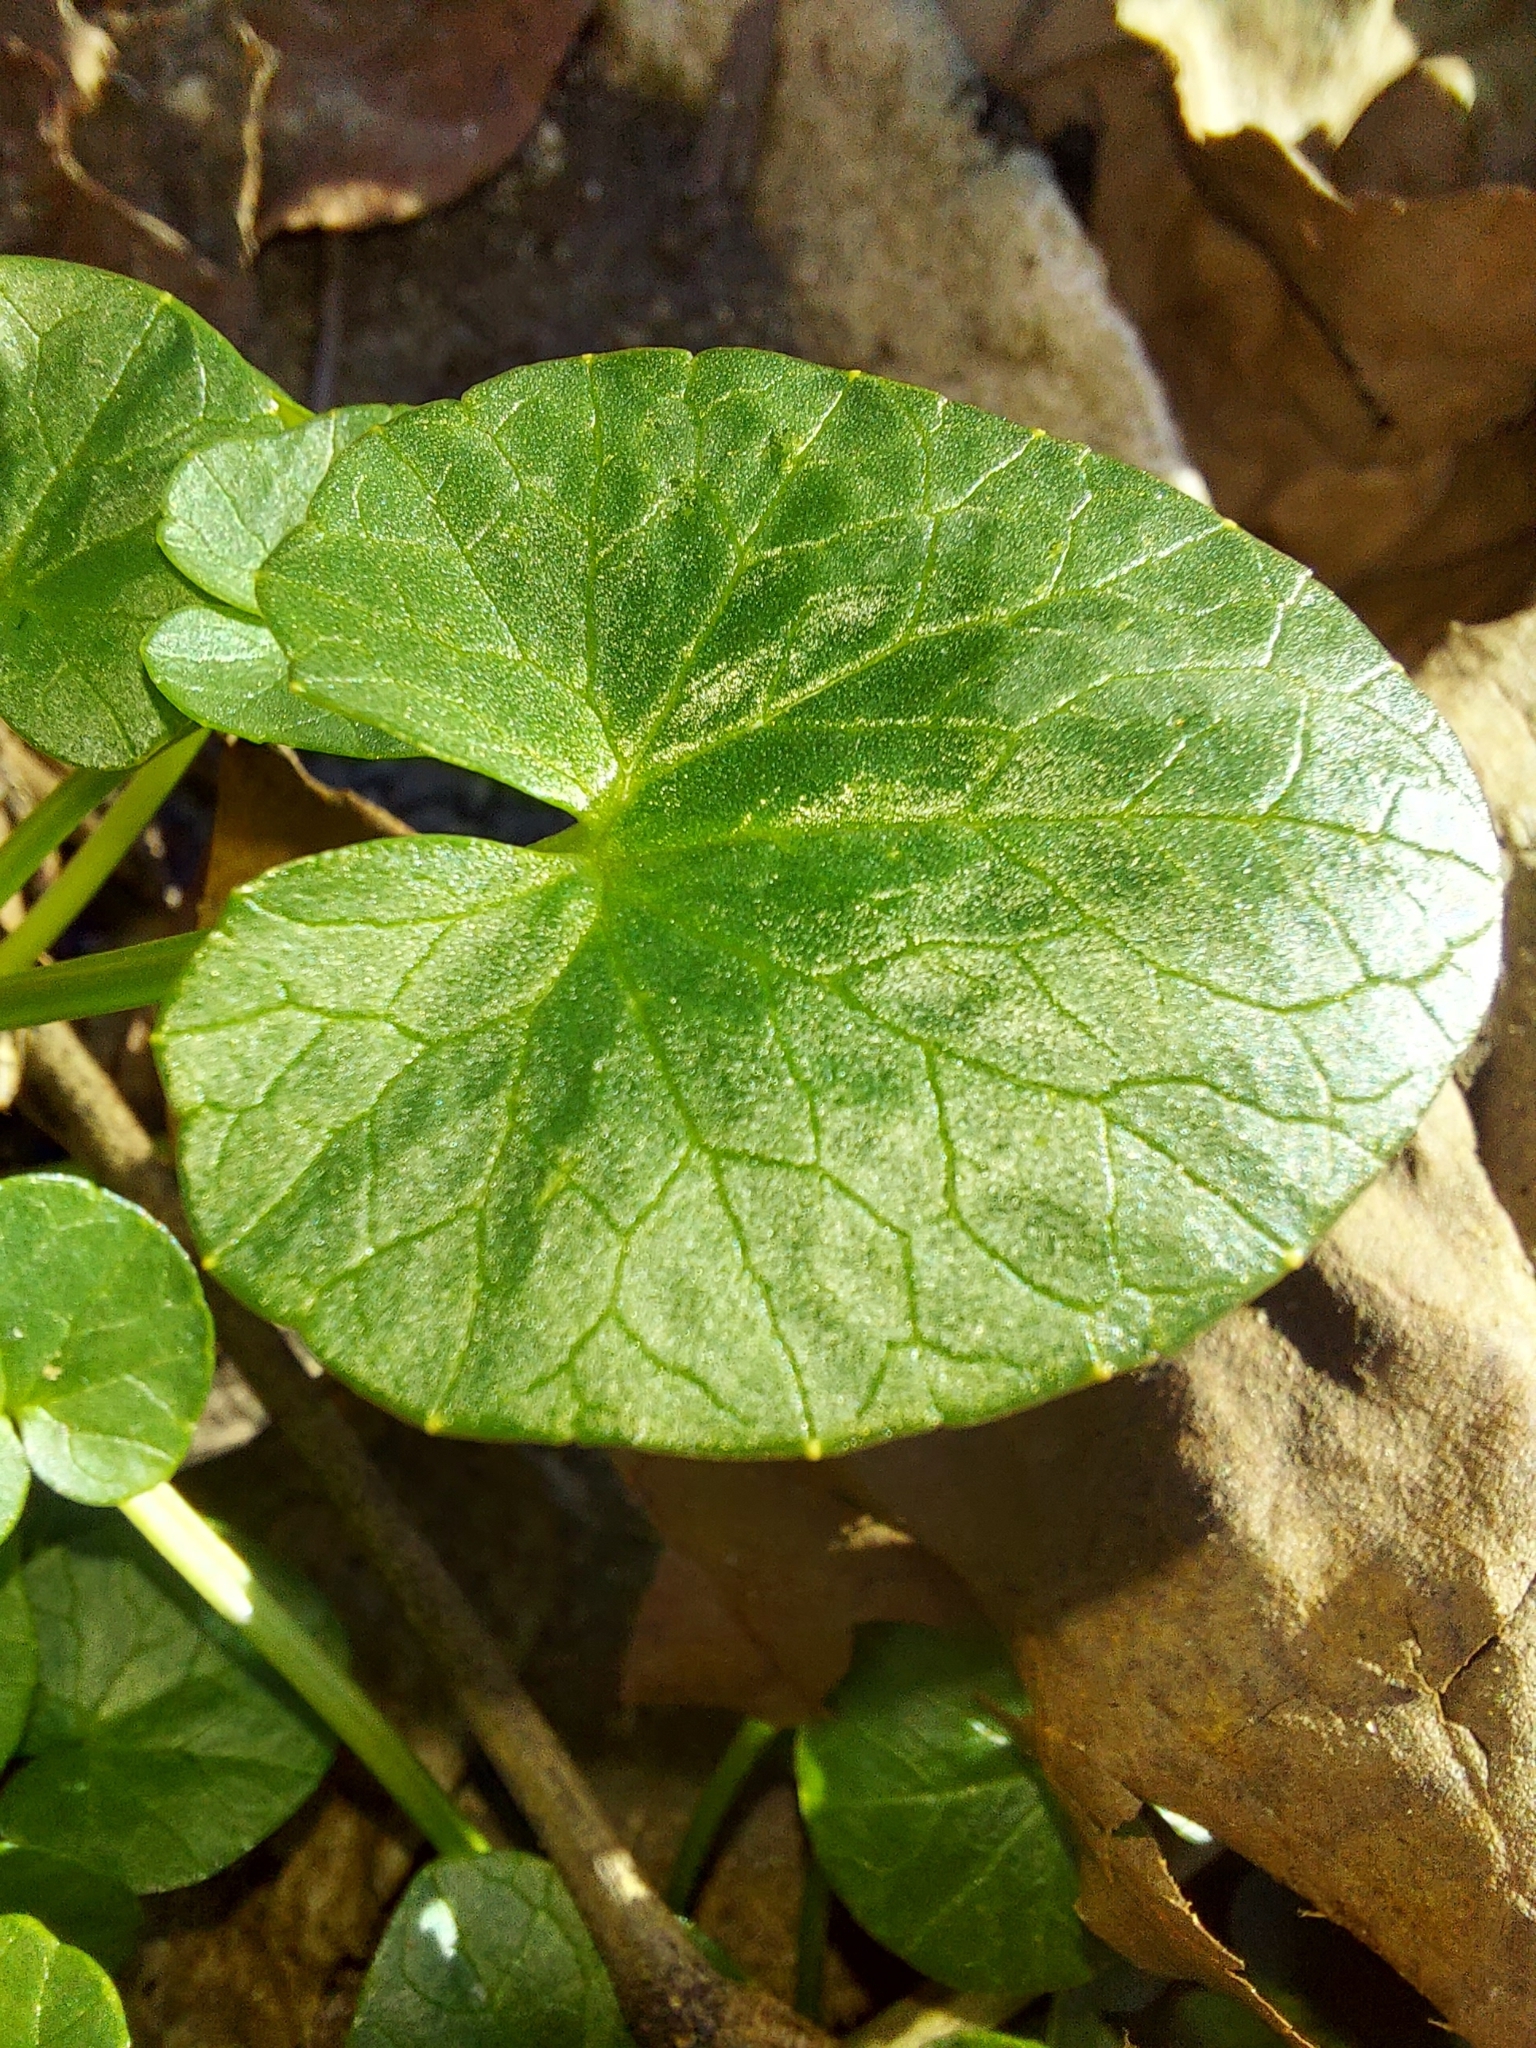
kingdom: Plantae
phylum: Tracheophyta
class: Magnoliopsida
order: Ranunculales
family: Ranunculaceae
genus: Ficaria
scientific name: Ficaria verna
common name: Lesser celandine
